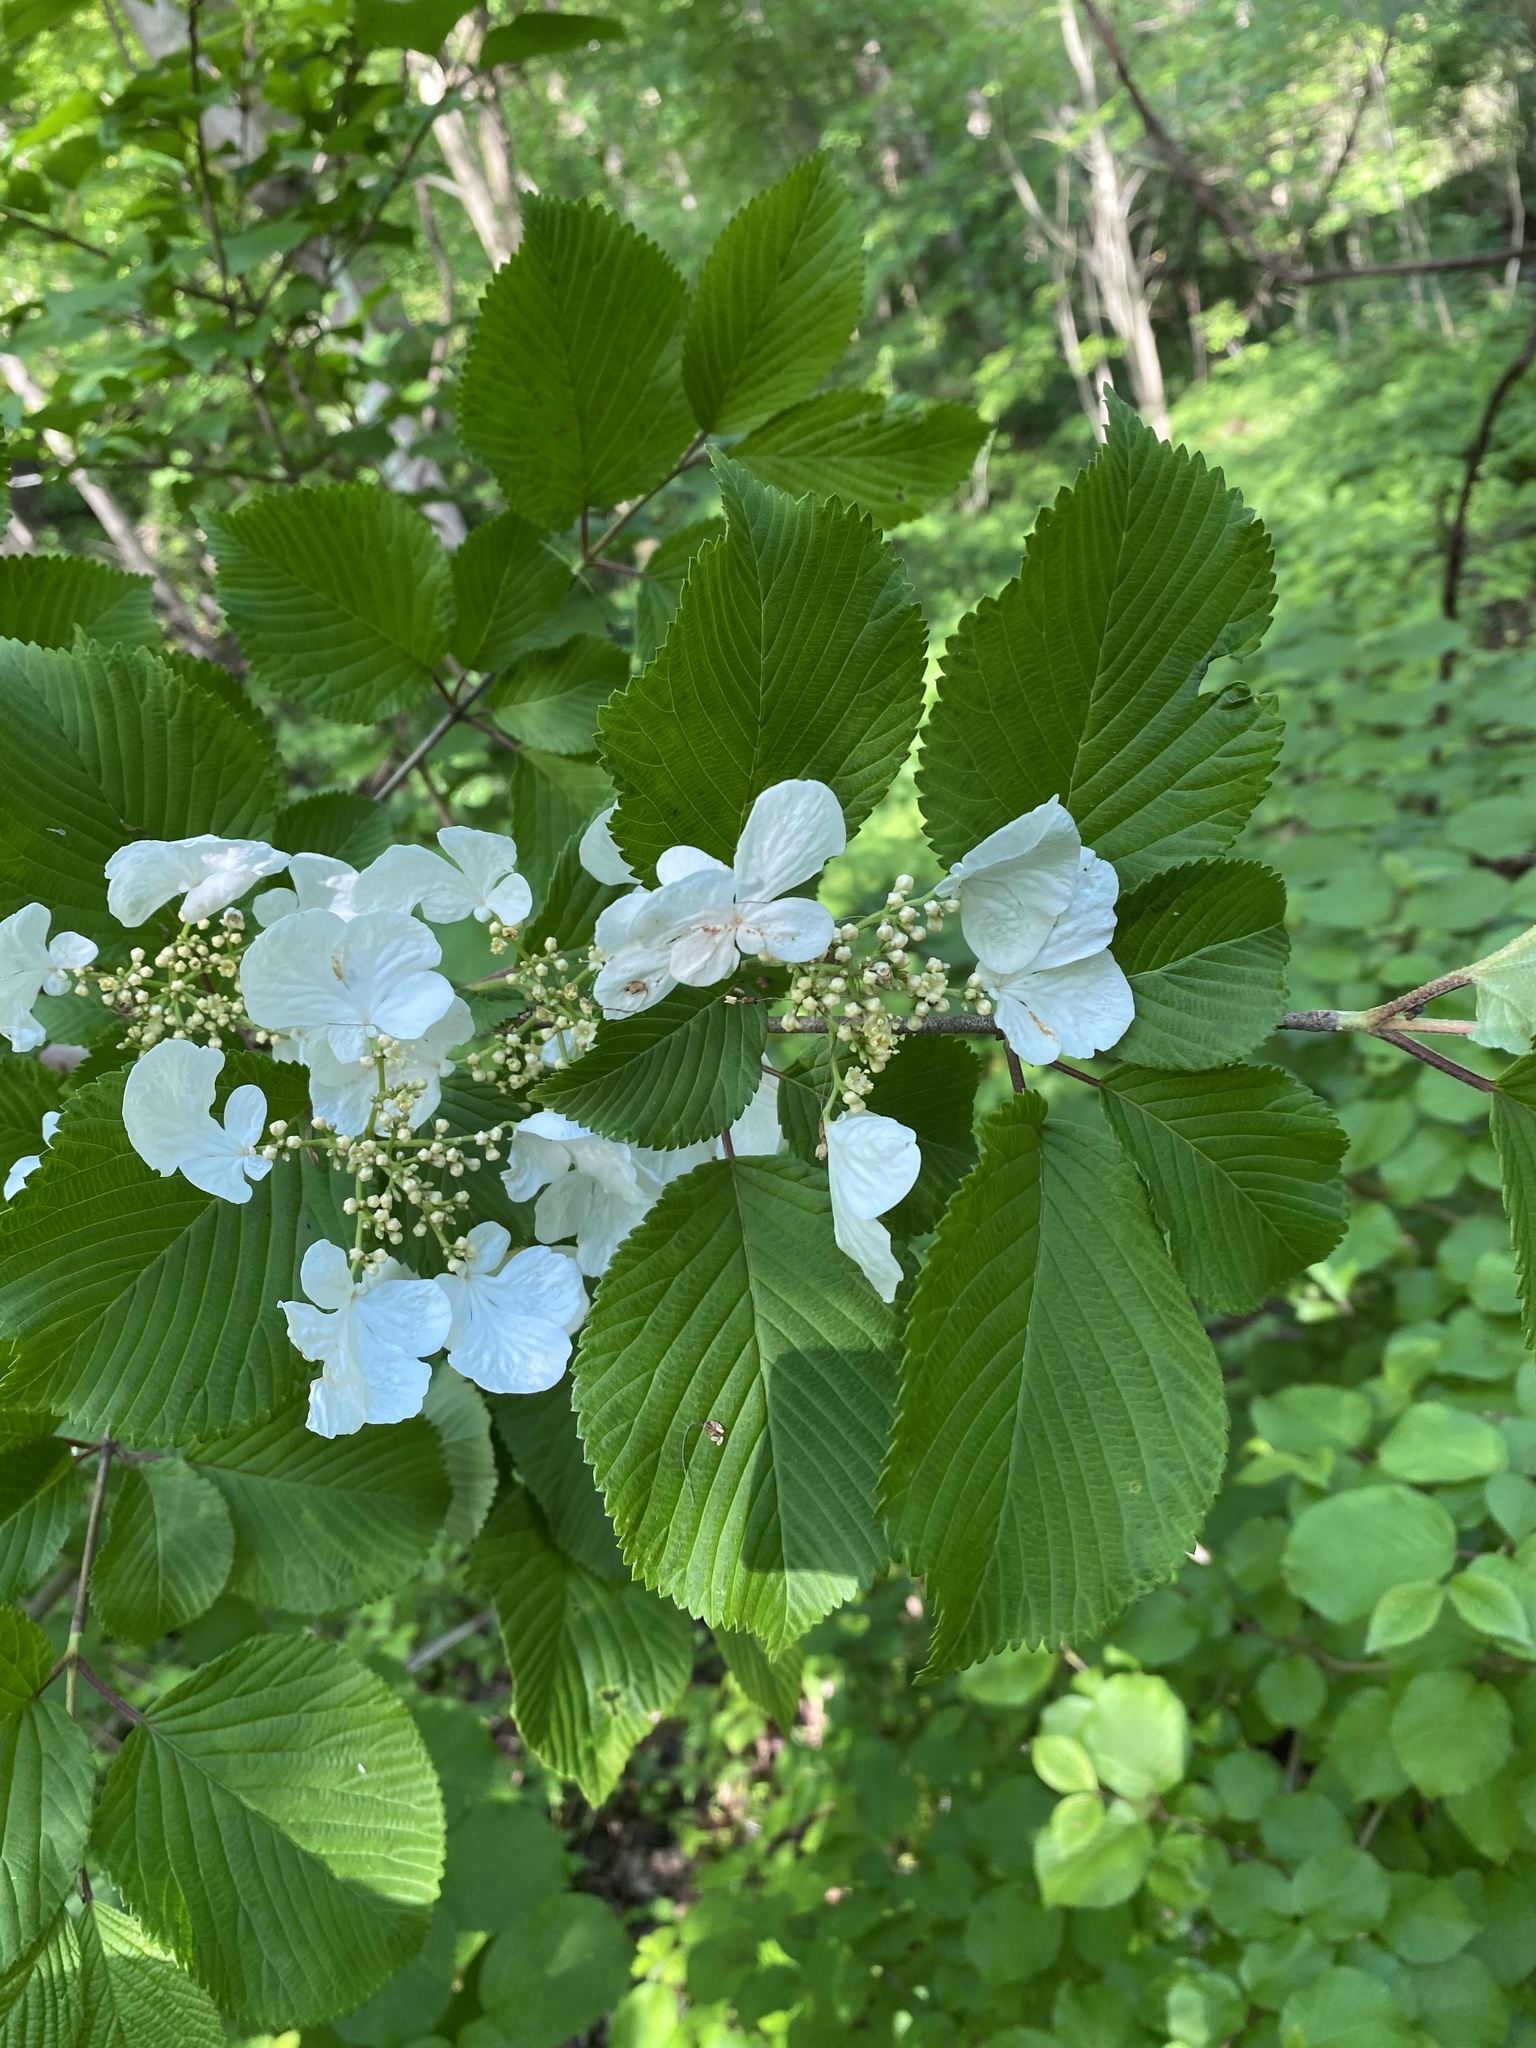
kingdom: Plantae
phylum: Tracheophyta
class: Magnoliopsida
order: Dipsacales
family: Viburnaceae
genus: Viburnum
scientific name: Viburnum plicatum
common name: Japanese snowball
